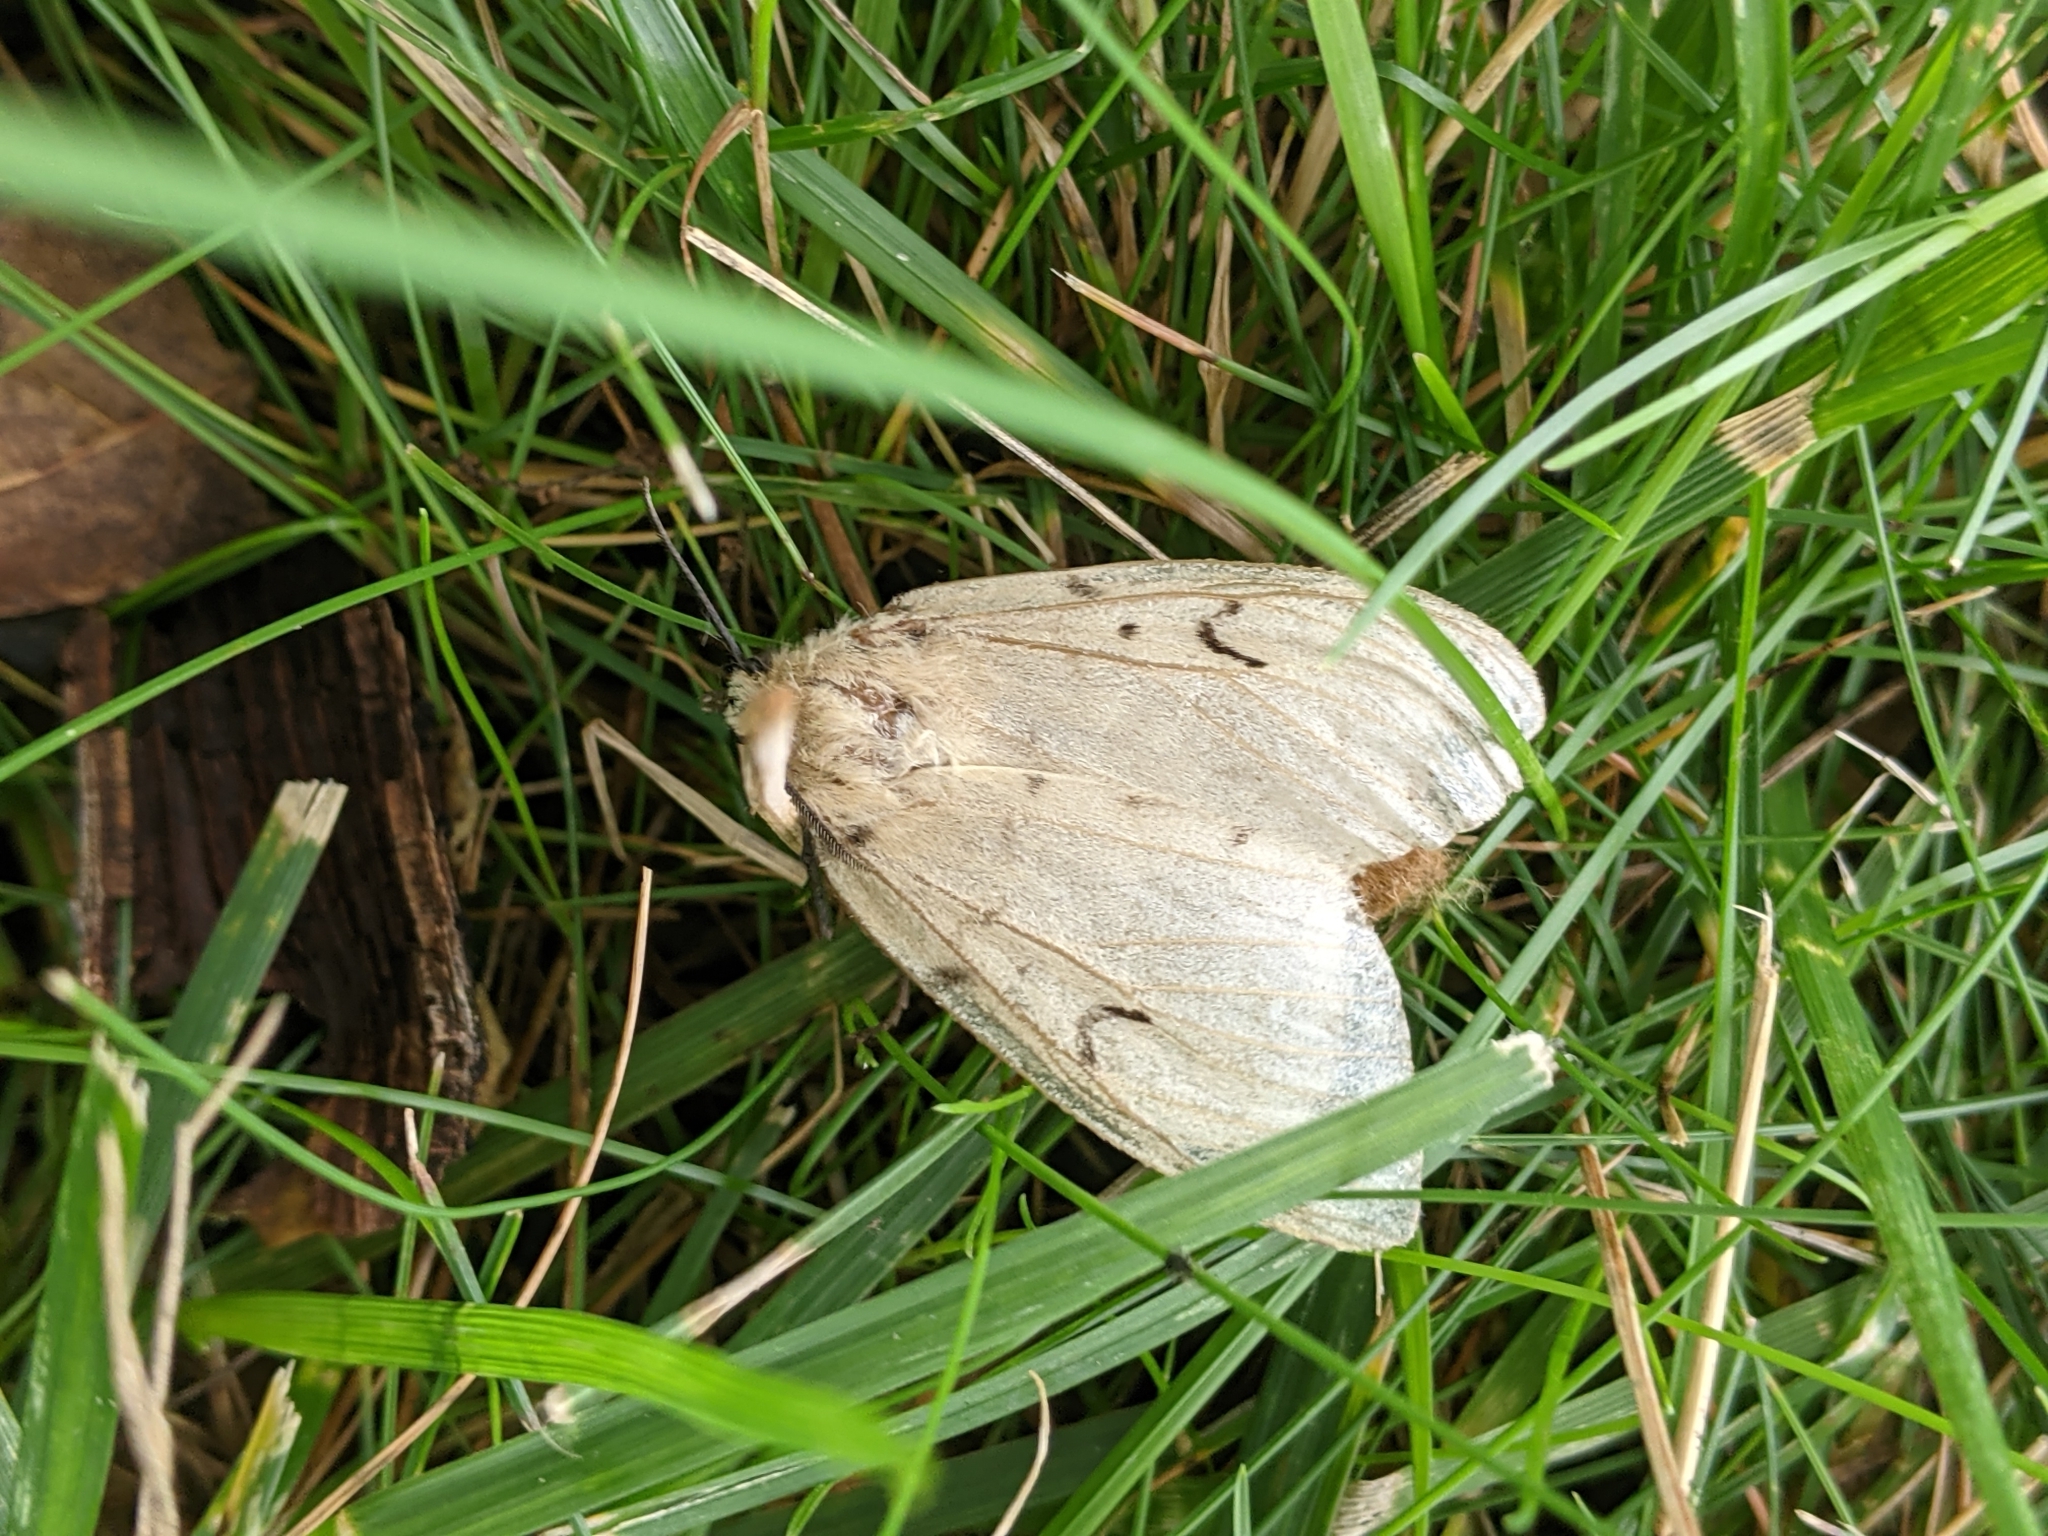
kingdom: Animalia
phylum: Arthropoda
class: Insecta
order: Lepidoptera
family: Erebidae
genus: Lymantria
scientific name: Lymantria dispar
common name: Gypsy moth
